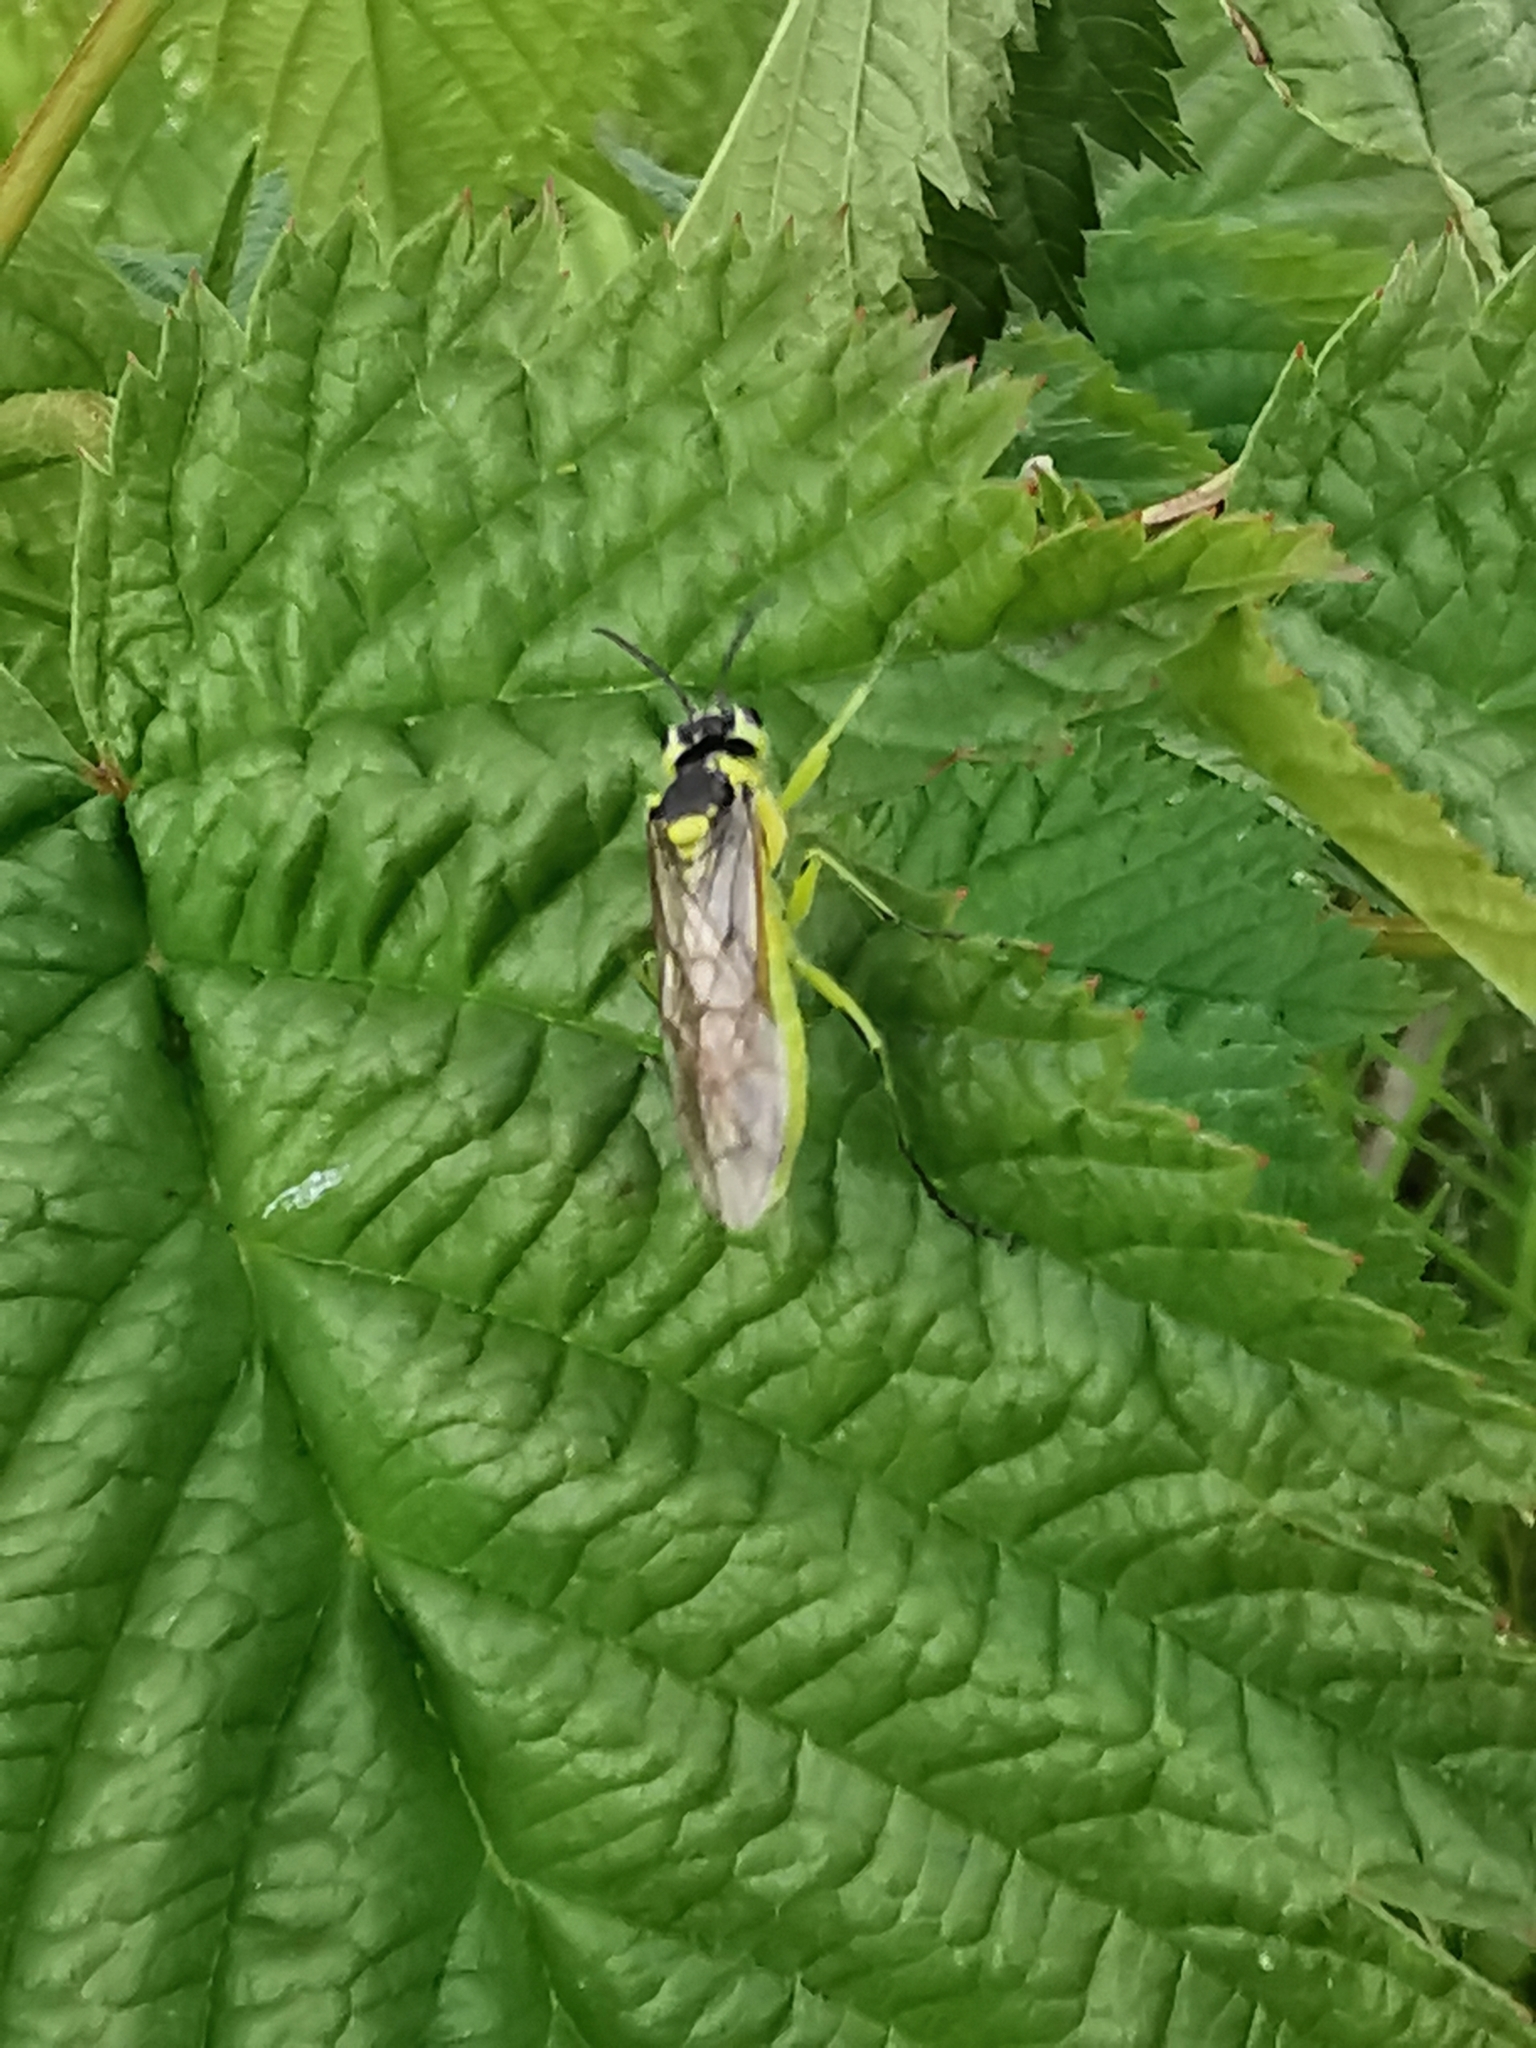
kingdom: Animalia
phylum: Arthropoda
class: Insecta
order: Hymenoptera
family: Tenthredinidae
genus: Tenthredo
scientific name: Tenthredo dealbata
